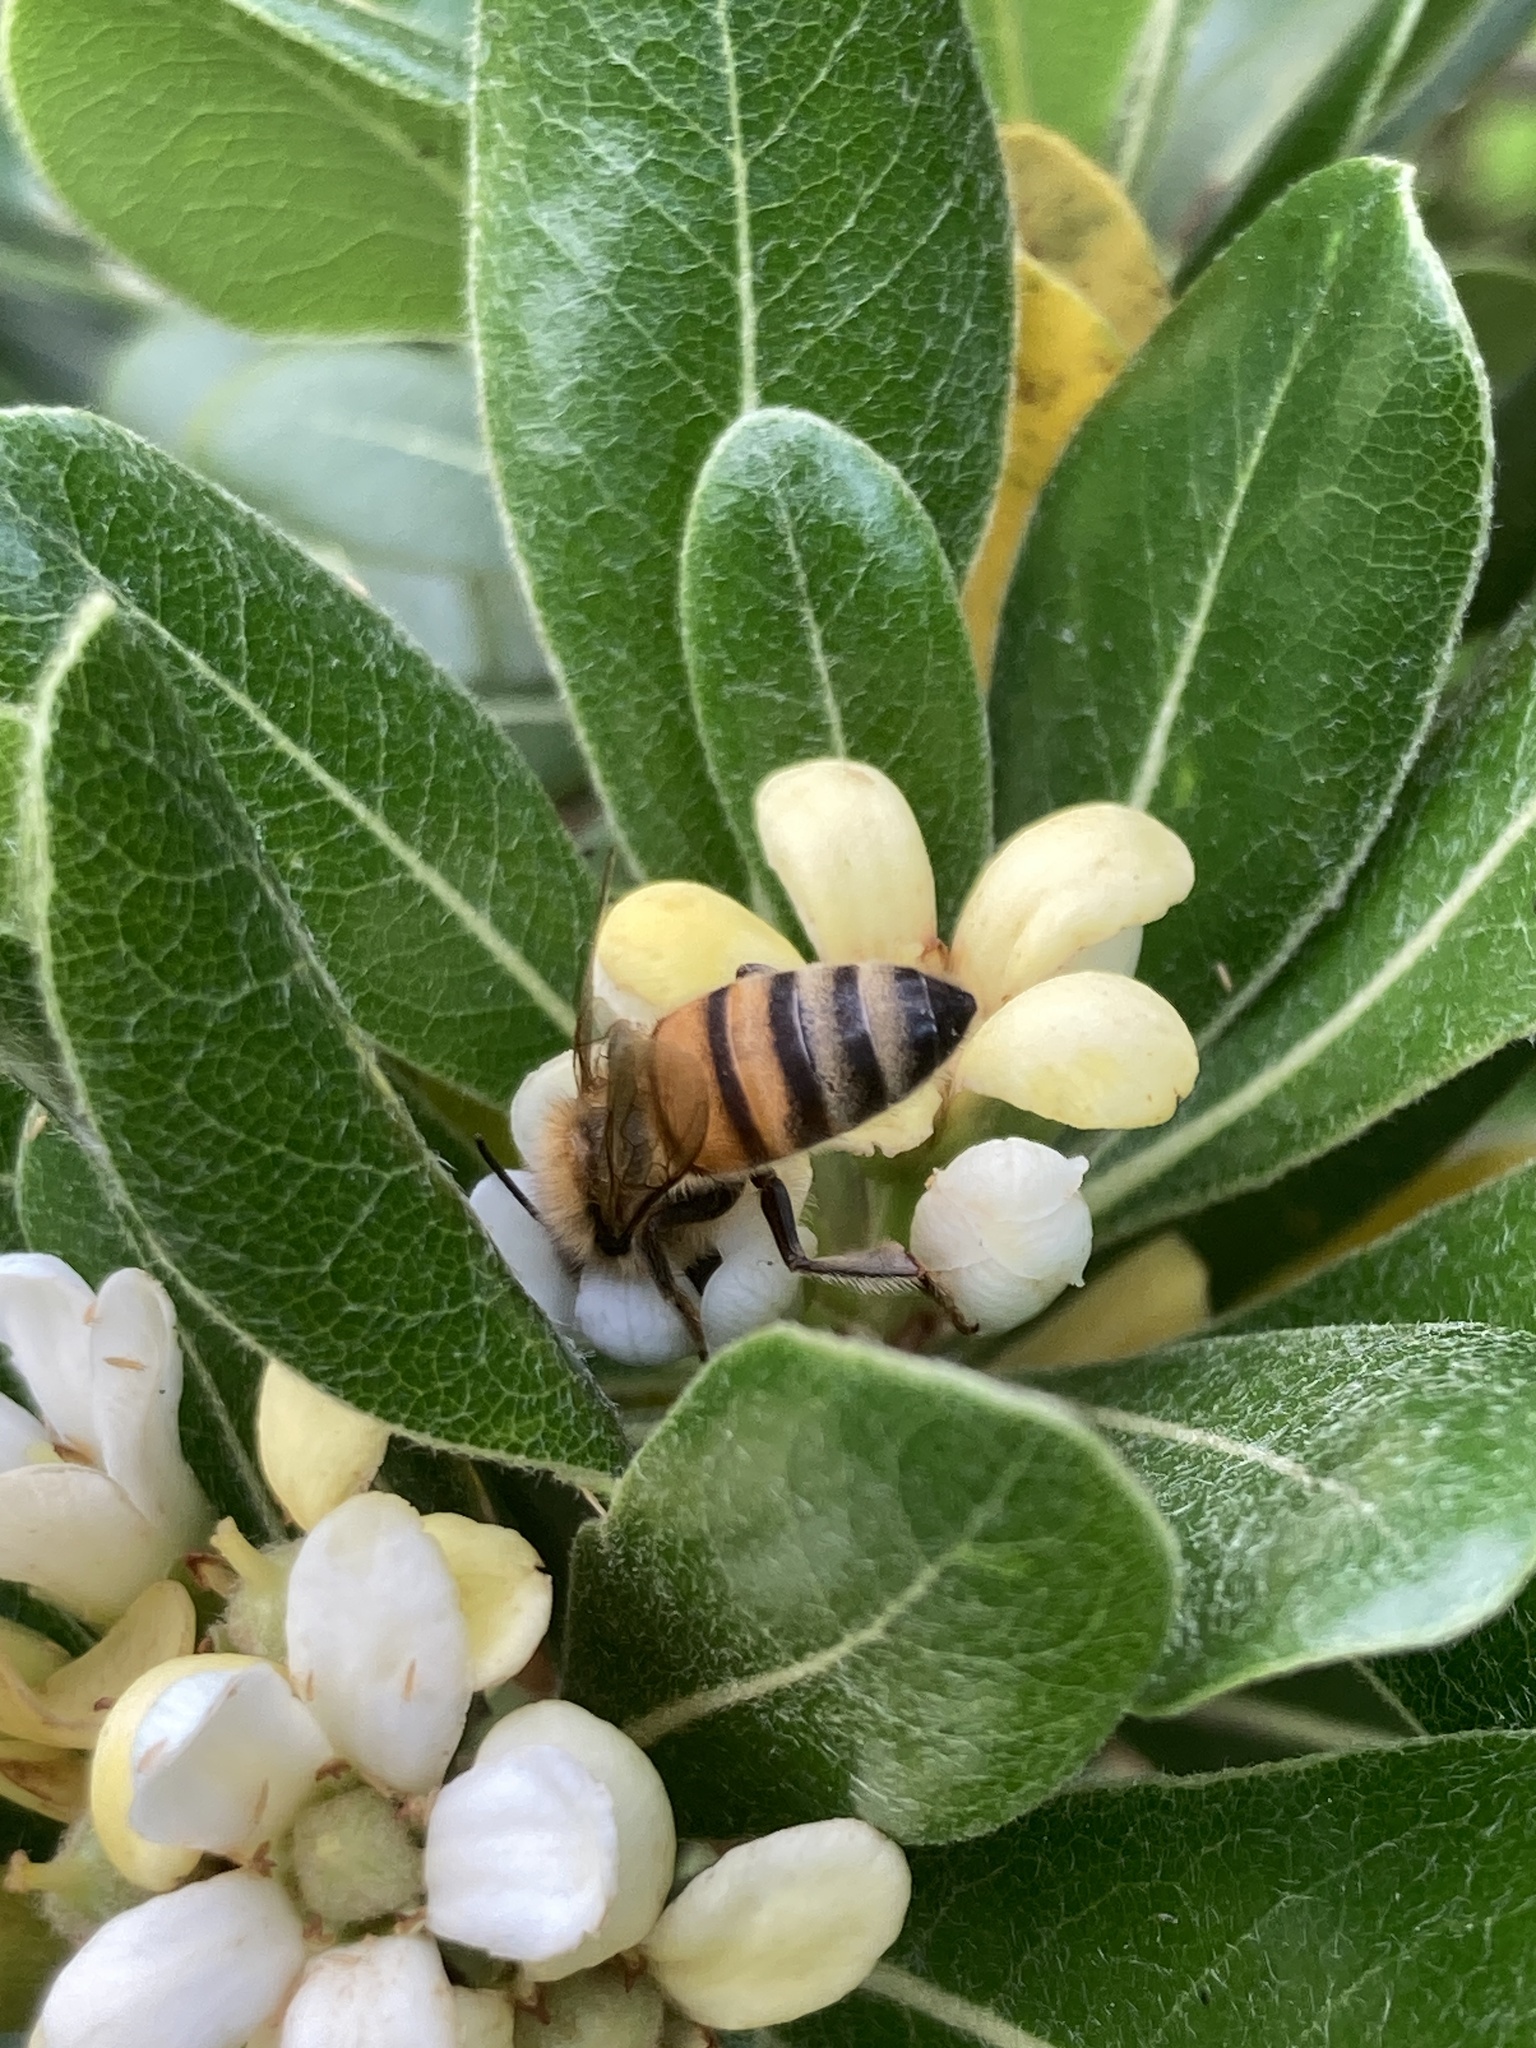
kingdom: Animalia
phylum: Arthropoda
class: Insecta
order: Hymenoptera
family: Apidae
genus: Apis
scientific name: Apis mellifera
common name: Honey bee
